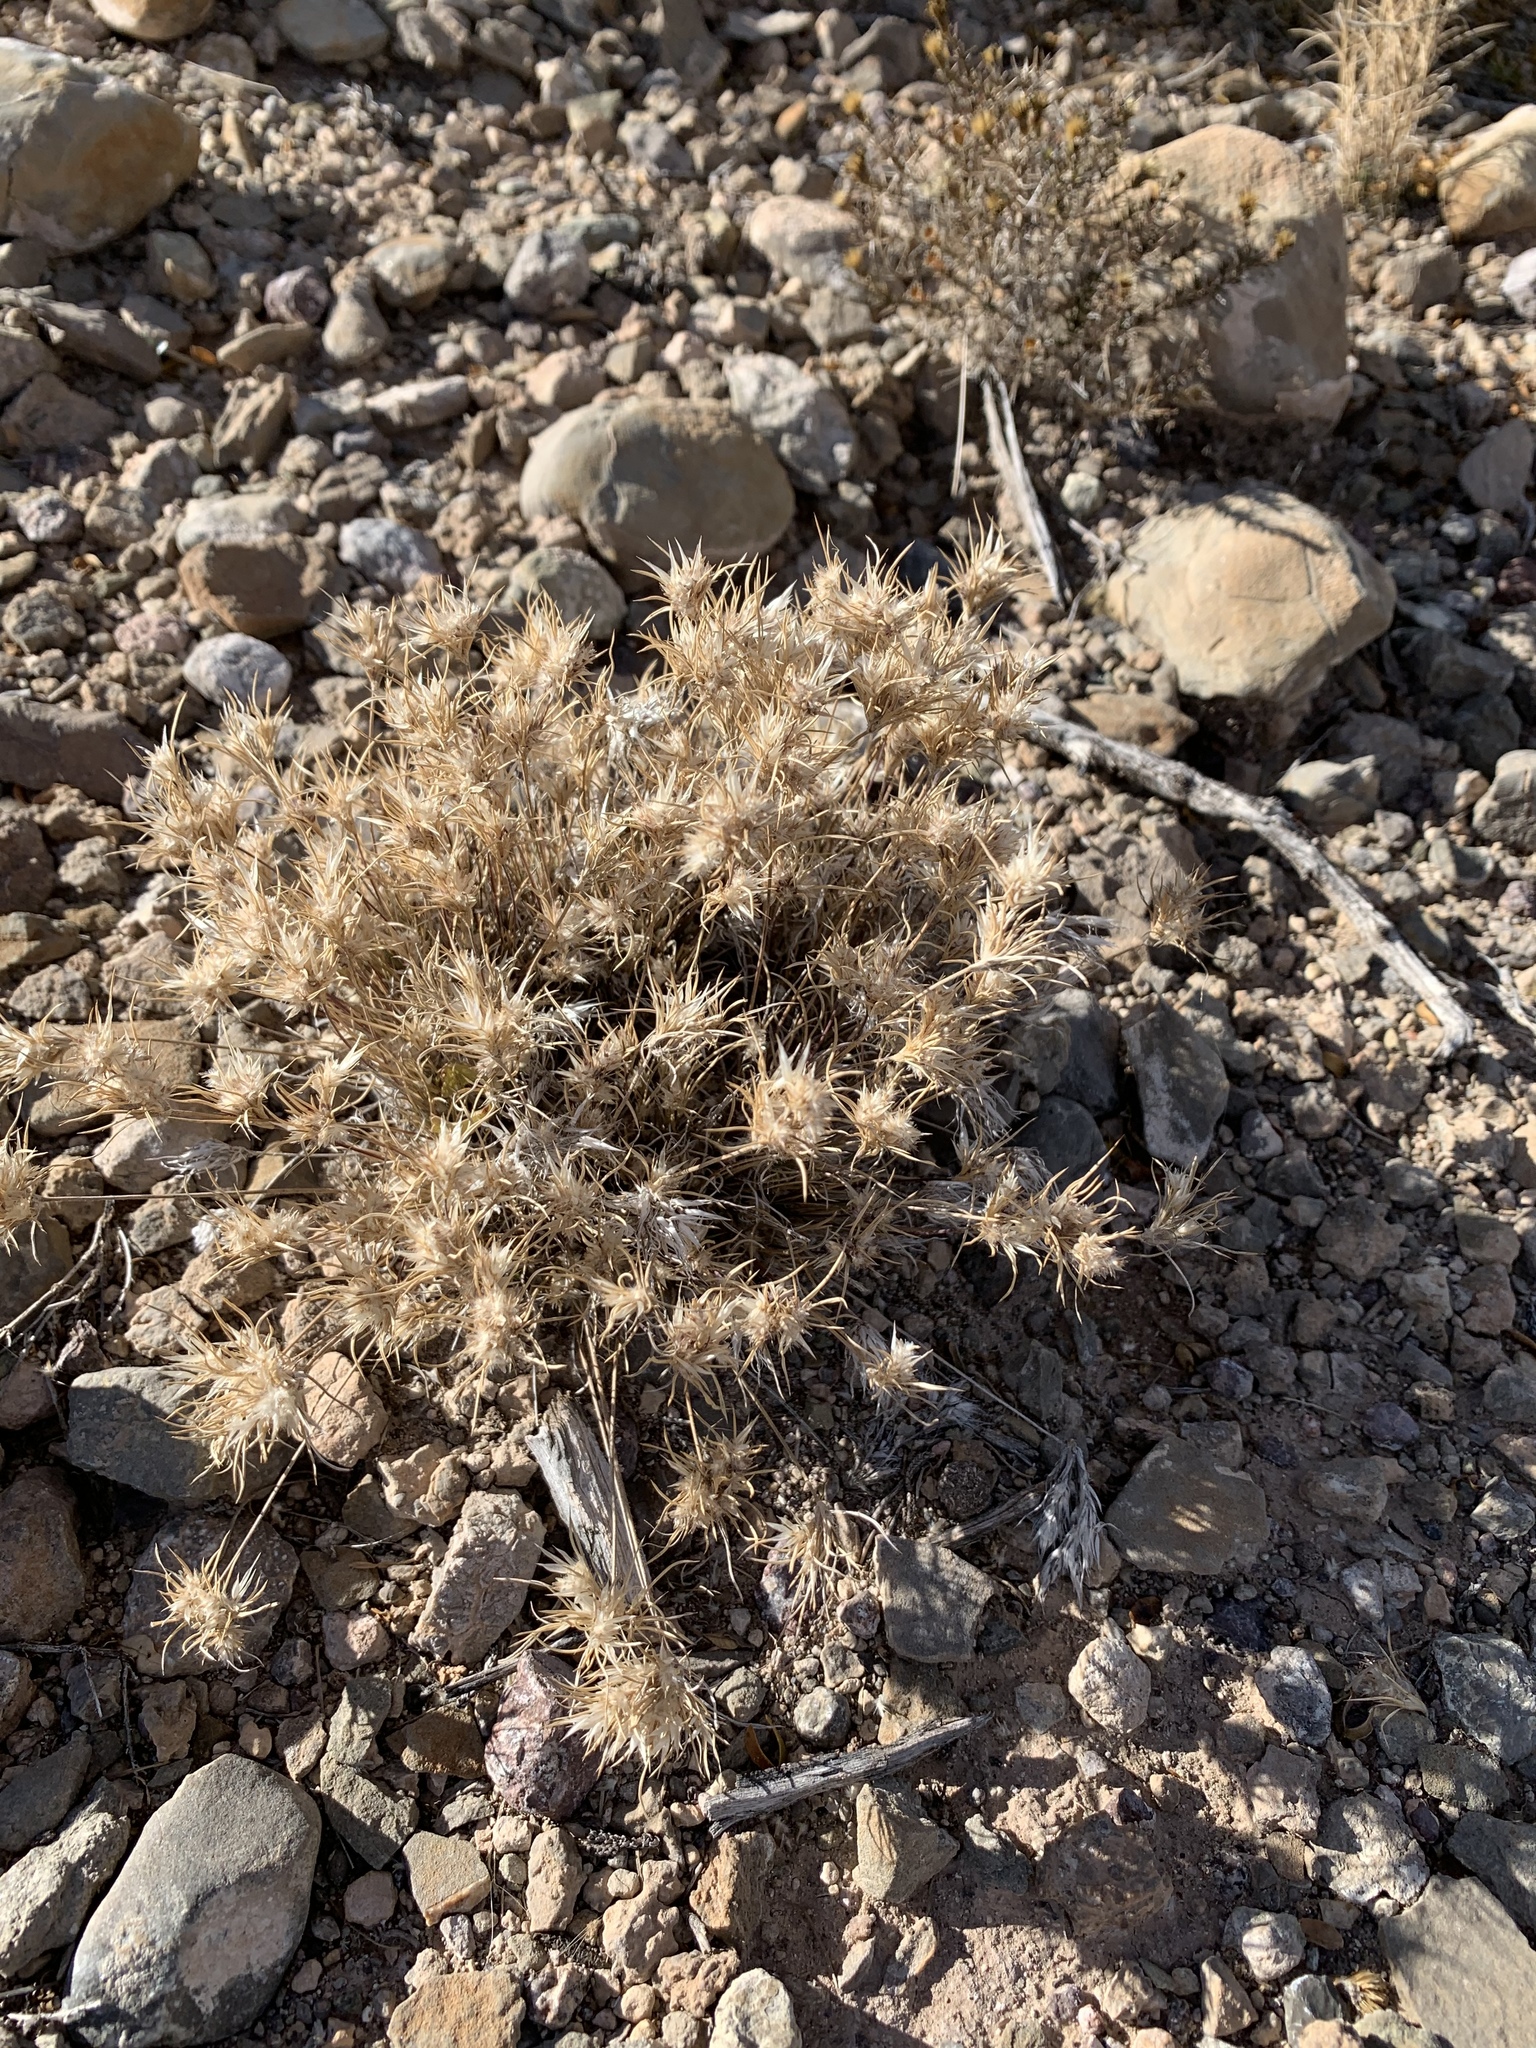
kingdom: Plantae
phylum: Tracheophyta
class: Liliopsida
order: Poales
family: Poaceae
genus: Dasyochloa
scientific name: Dasyochloa pulchella
